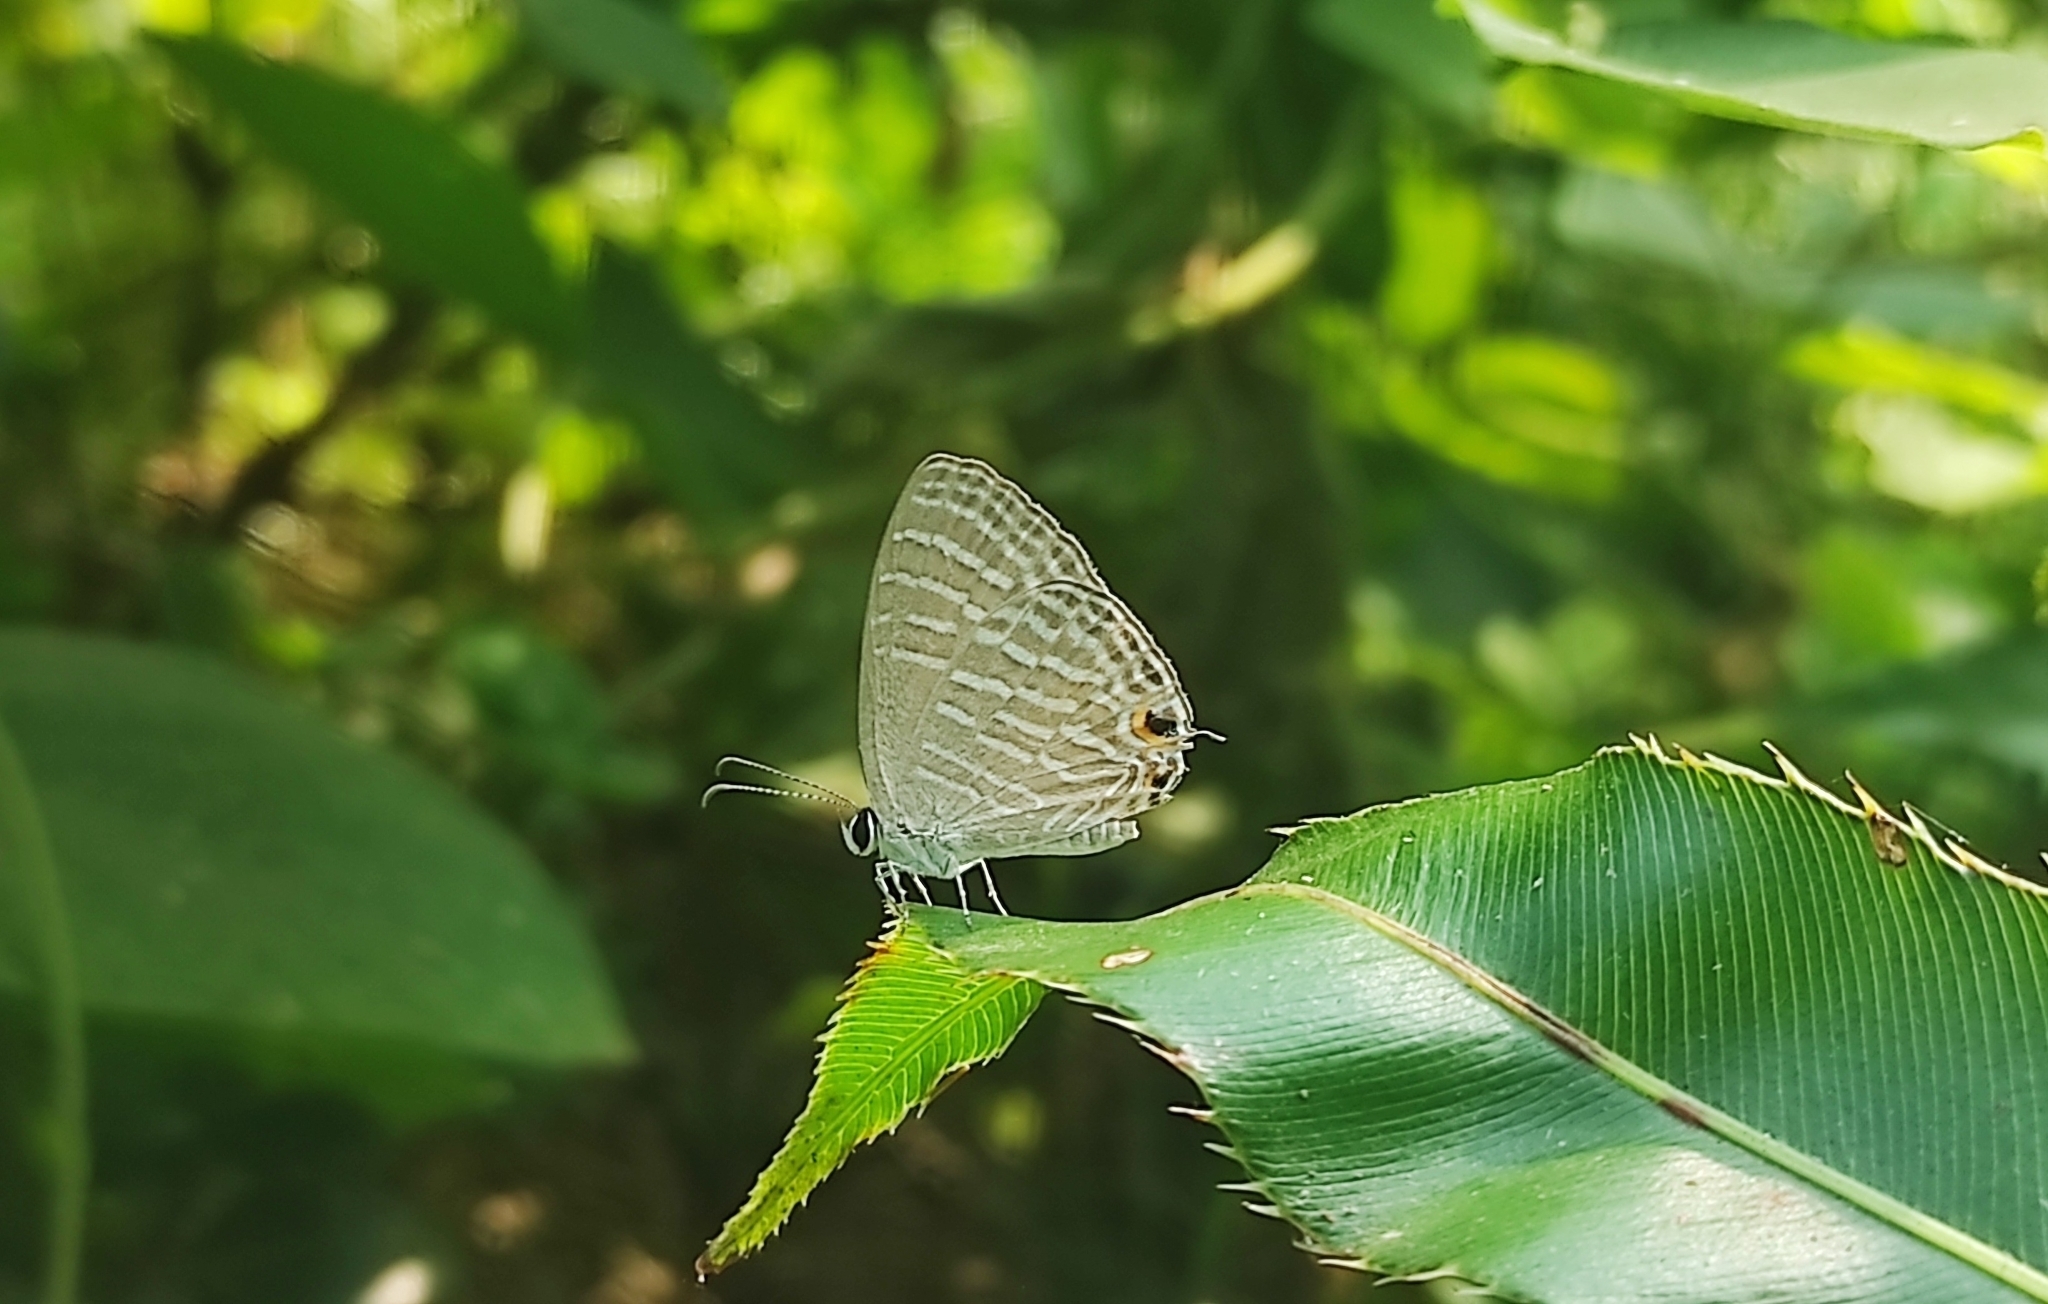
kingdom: Animalia
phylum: Arthropoda
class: Insecta
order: Lepidoptera
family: Lycaenidae
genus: Jamides
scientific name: Jamides celeno
